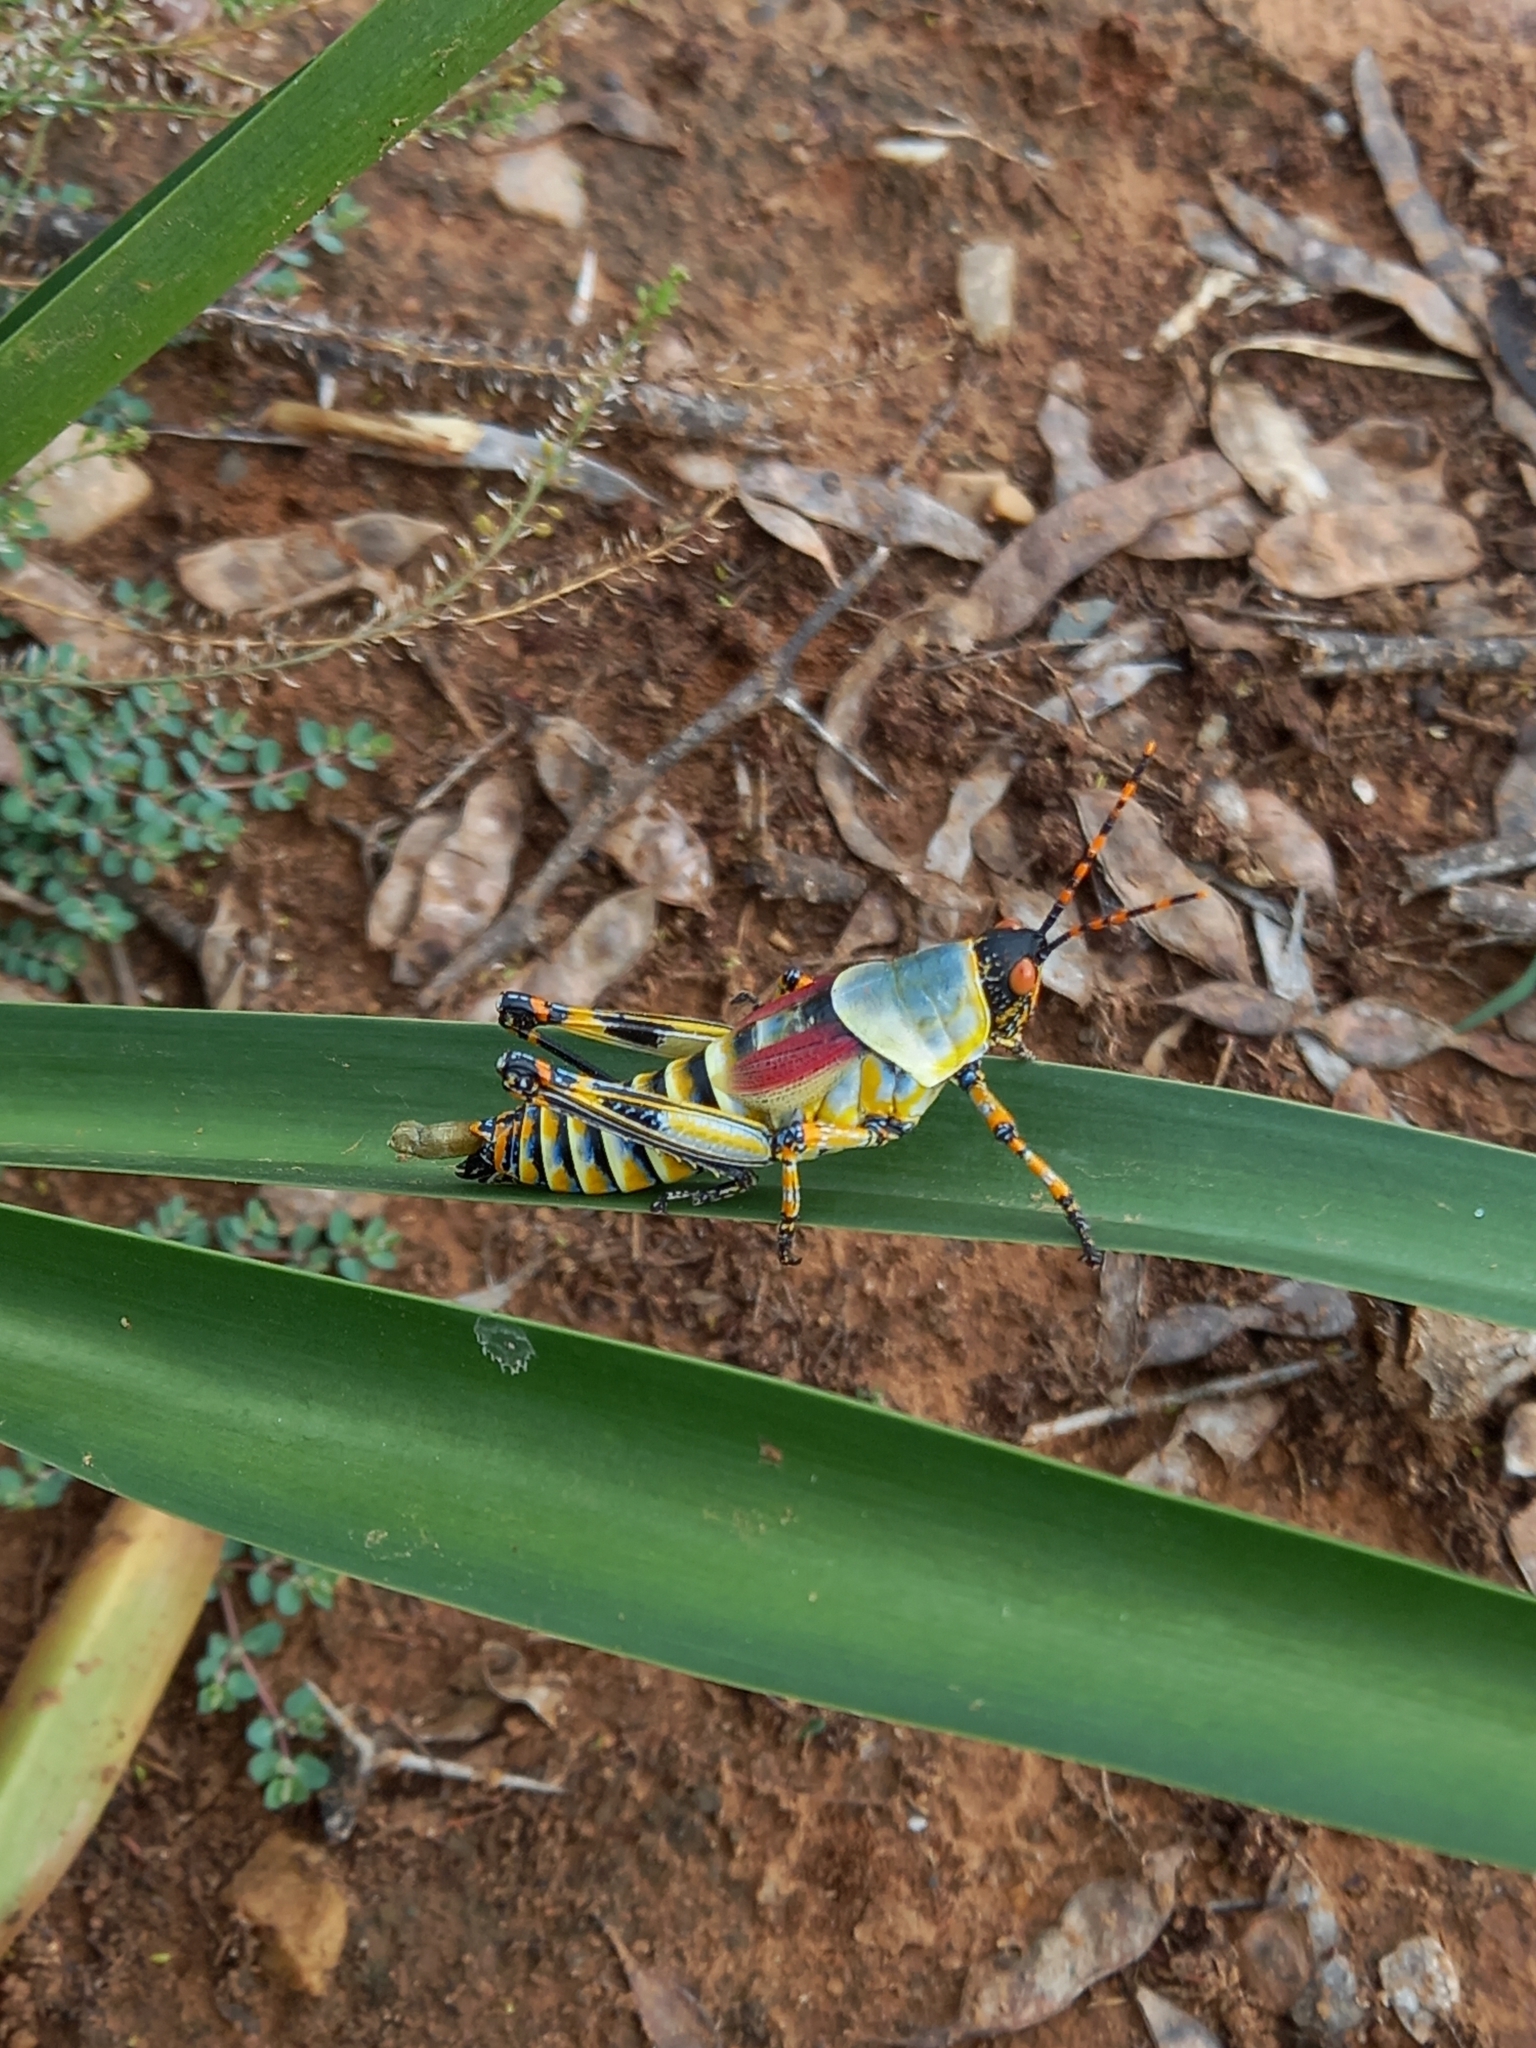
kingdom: Animalia
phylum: Arthropoda
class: Insecta
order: Orthoptera
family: Pyrgomorphidae
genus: Zonocerus
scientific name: Zonocerus elegans
